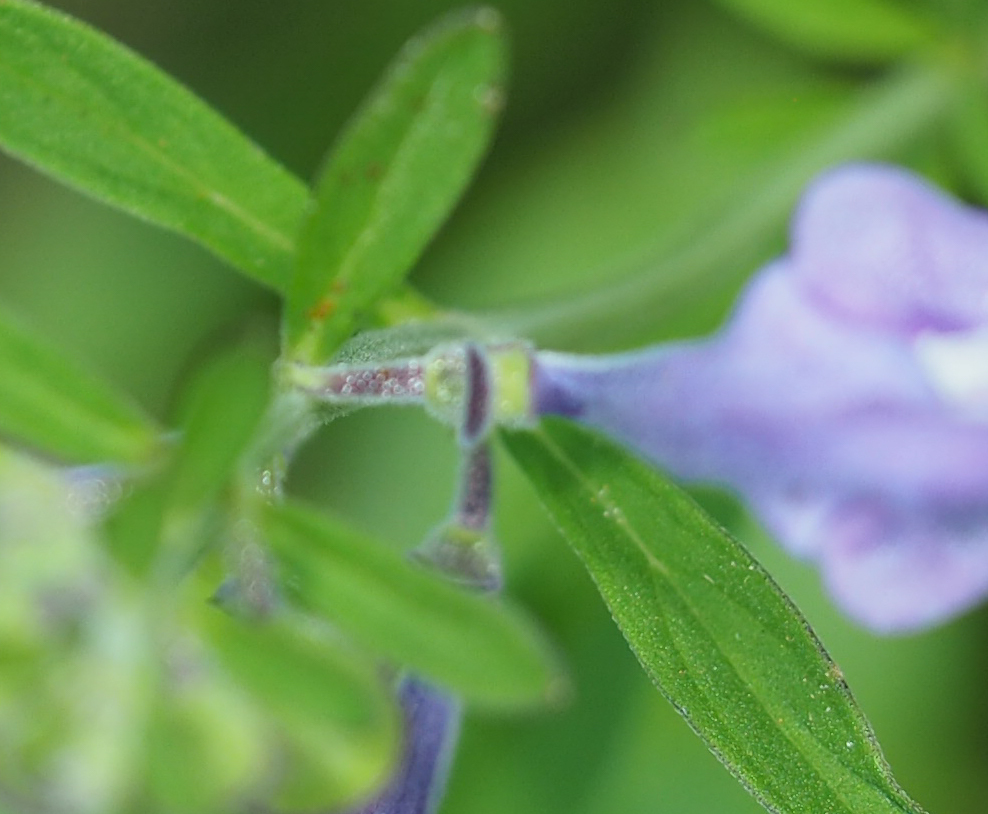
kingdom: Plantae
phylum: Tracheophyta
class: Magnoliopsida
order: Lamiales
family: Lamiaceae
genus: Scutellaria
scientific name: Scutellaria integrifolia
